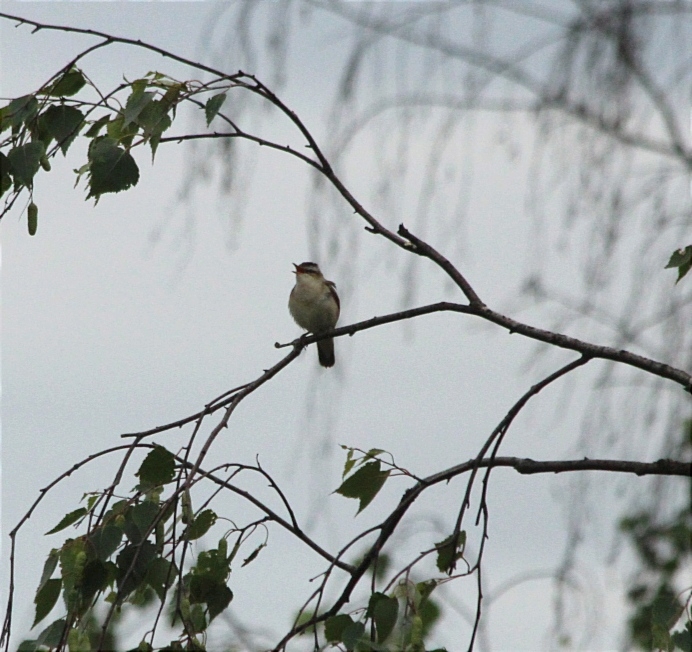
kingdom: Animalia
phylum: Chordata
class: Aves
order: Passeriformes
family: Acrocephalidae
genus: Acrocephalus
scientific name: Acrocephalus schoenobaenus
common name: Sedge warbler
